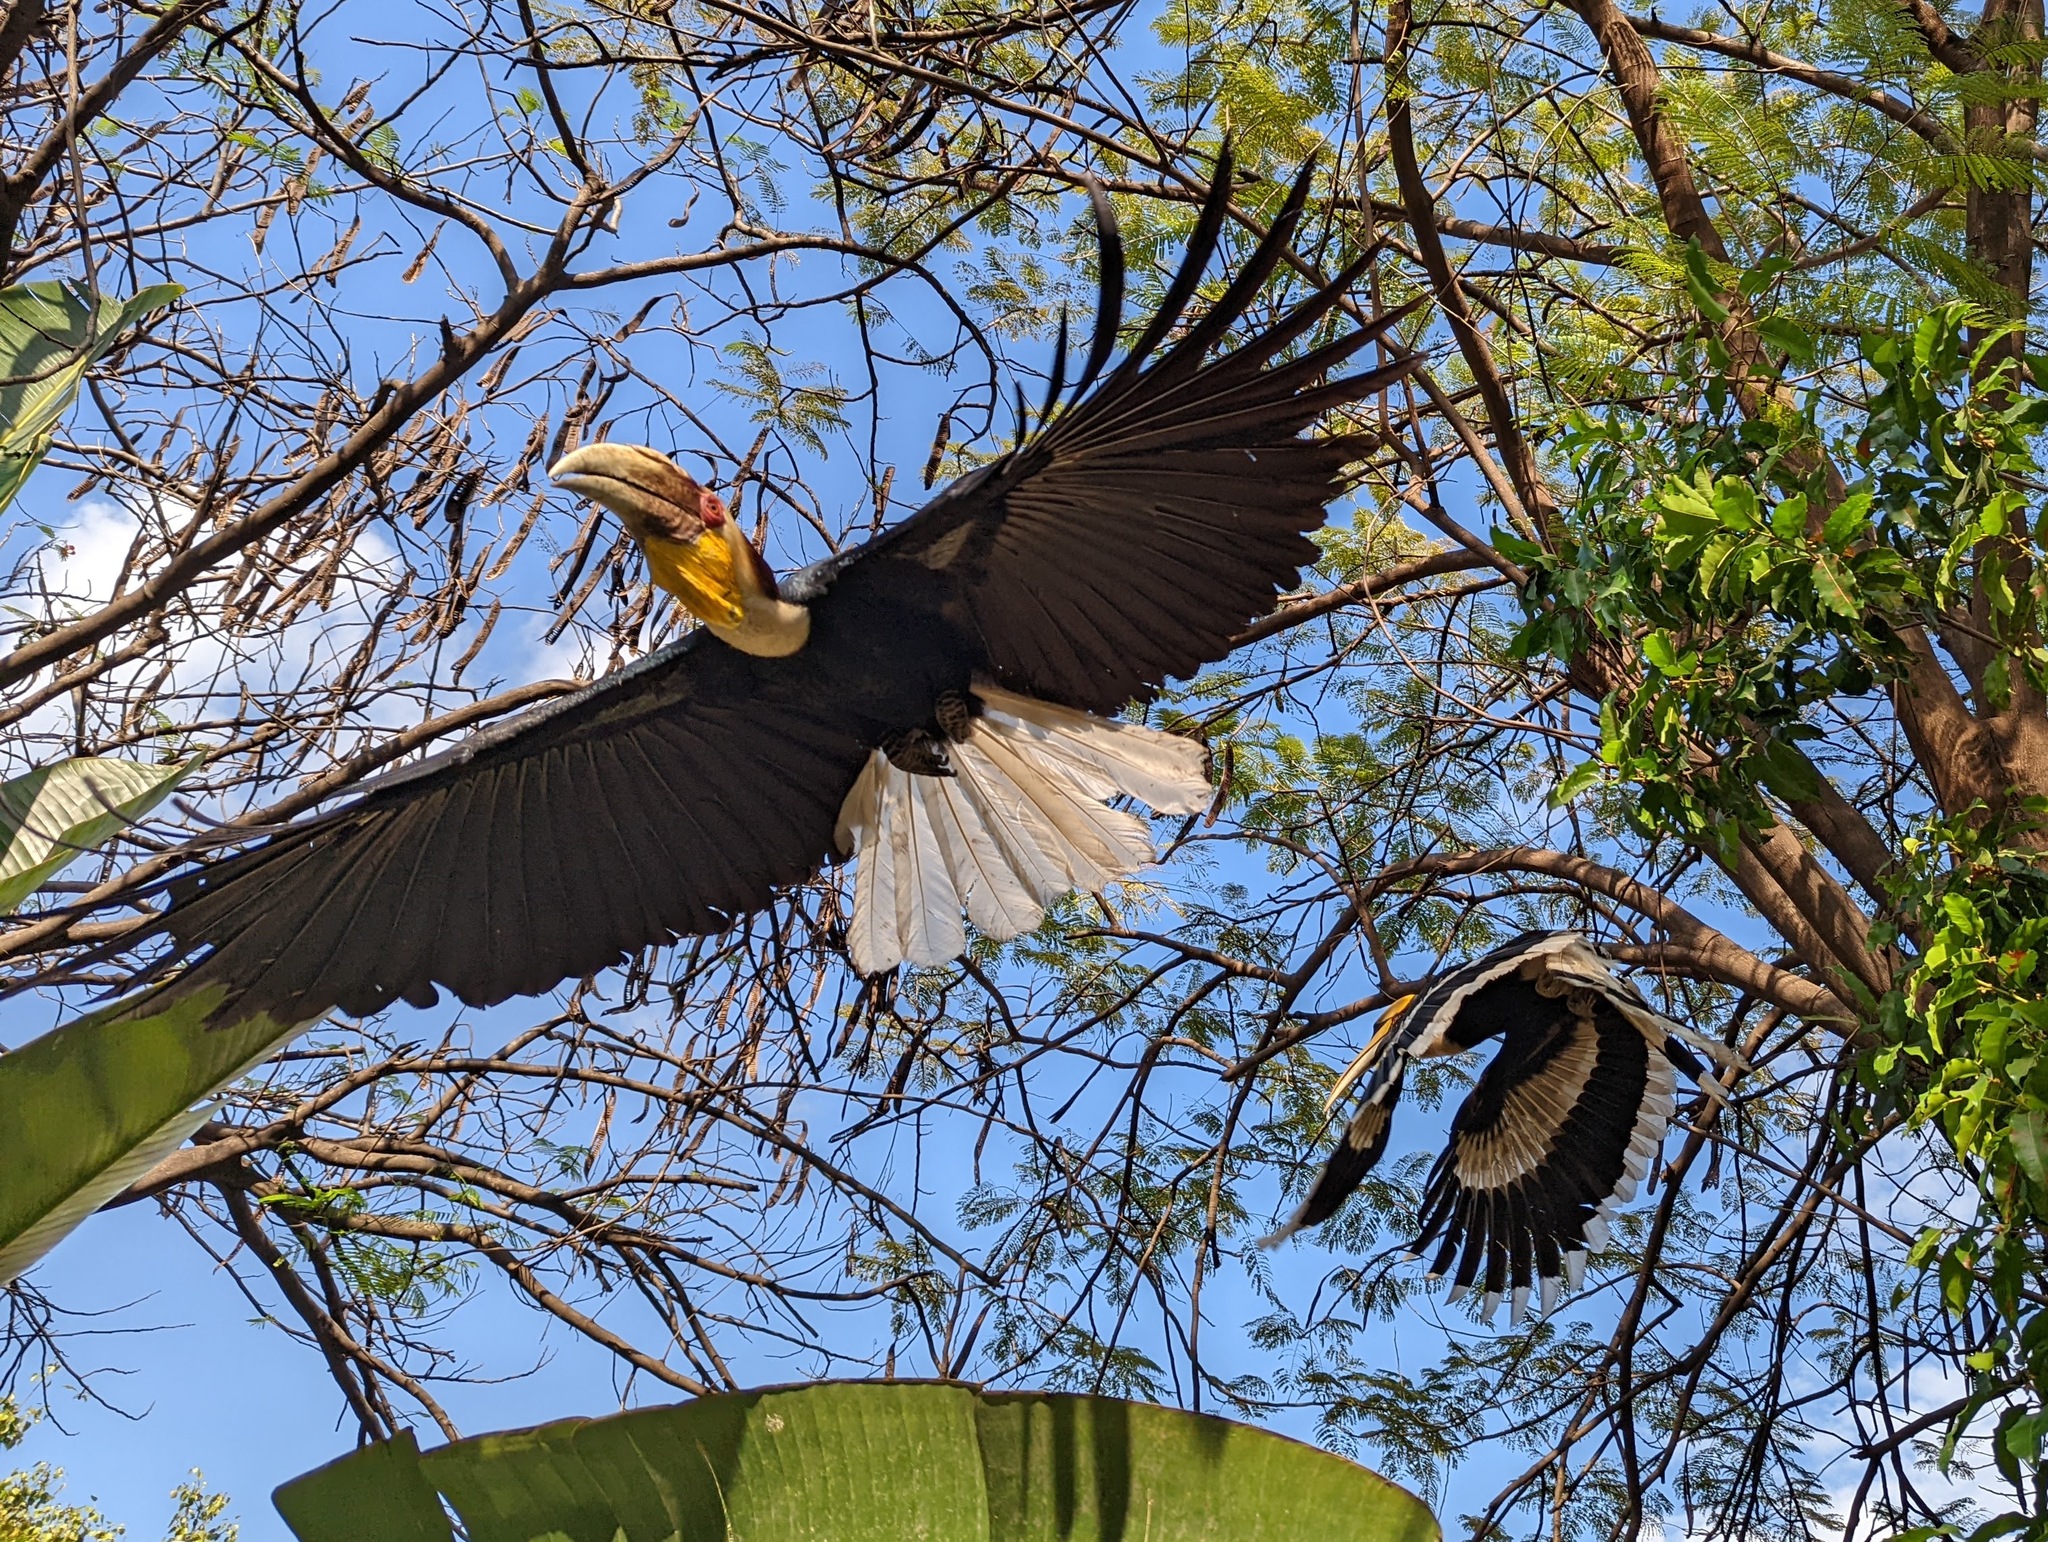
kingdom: Animalia
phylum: Chordata
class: Aves
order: Bucerotiformes
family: Bucerotidae
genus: Rhyticeros
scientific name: Rhyticeros undulatus
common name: Wreathed hornbill
